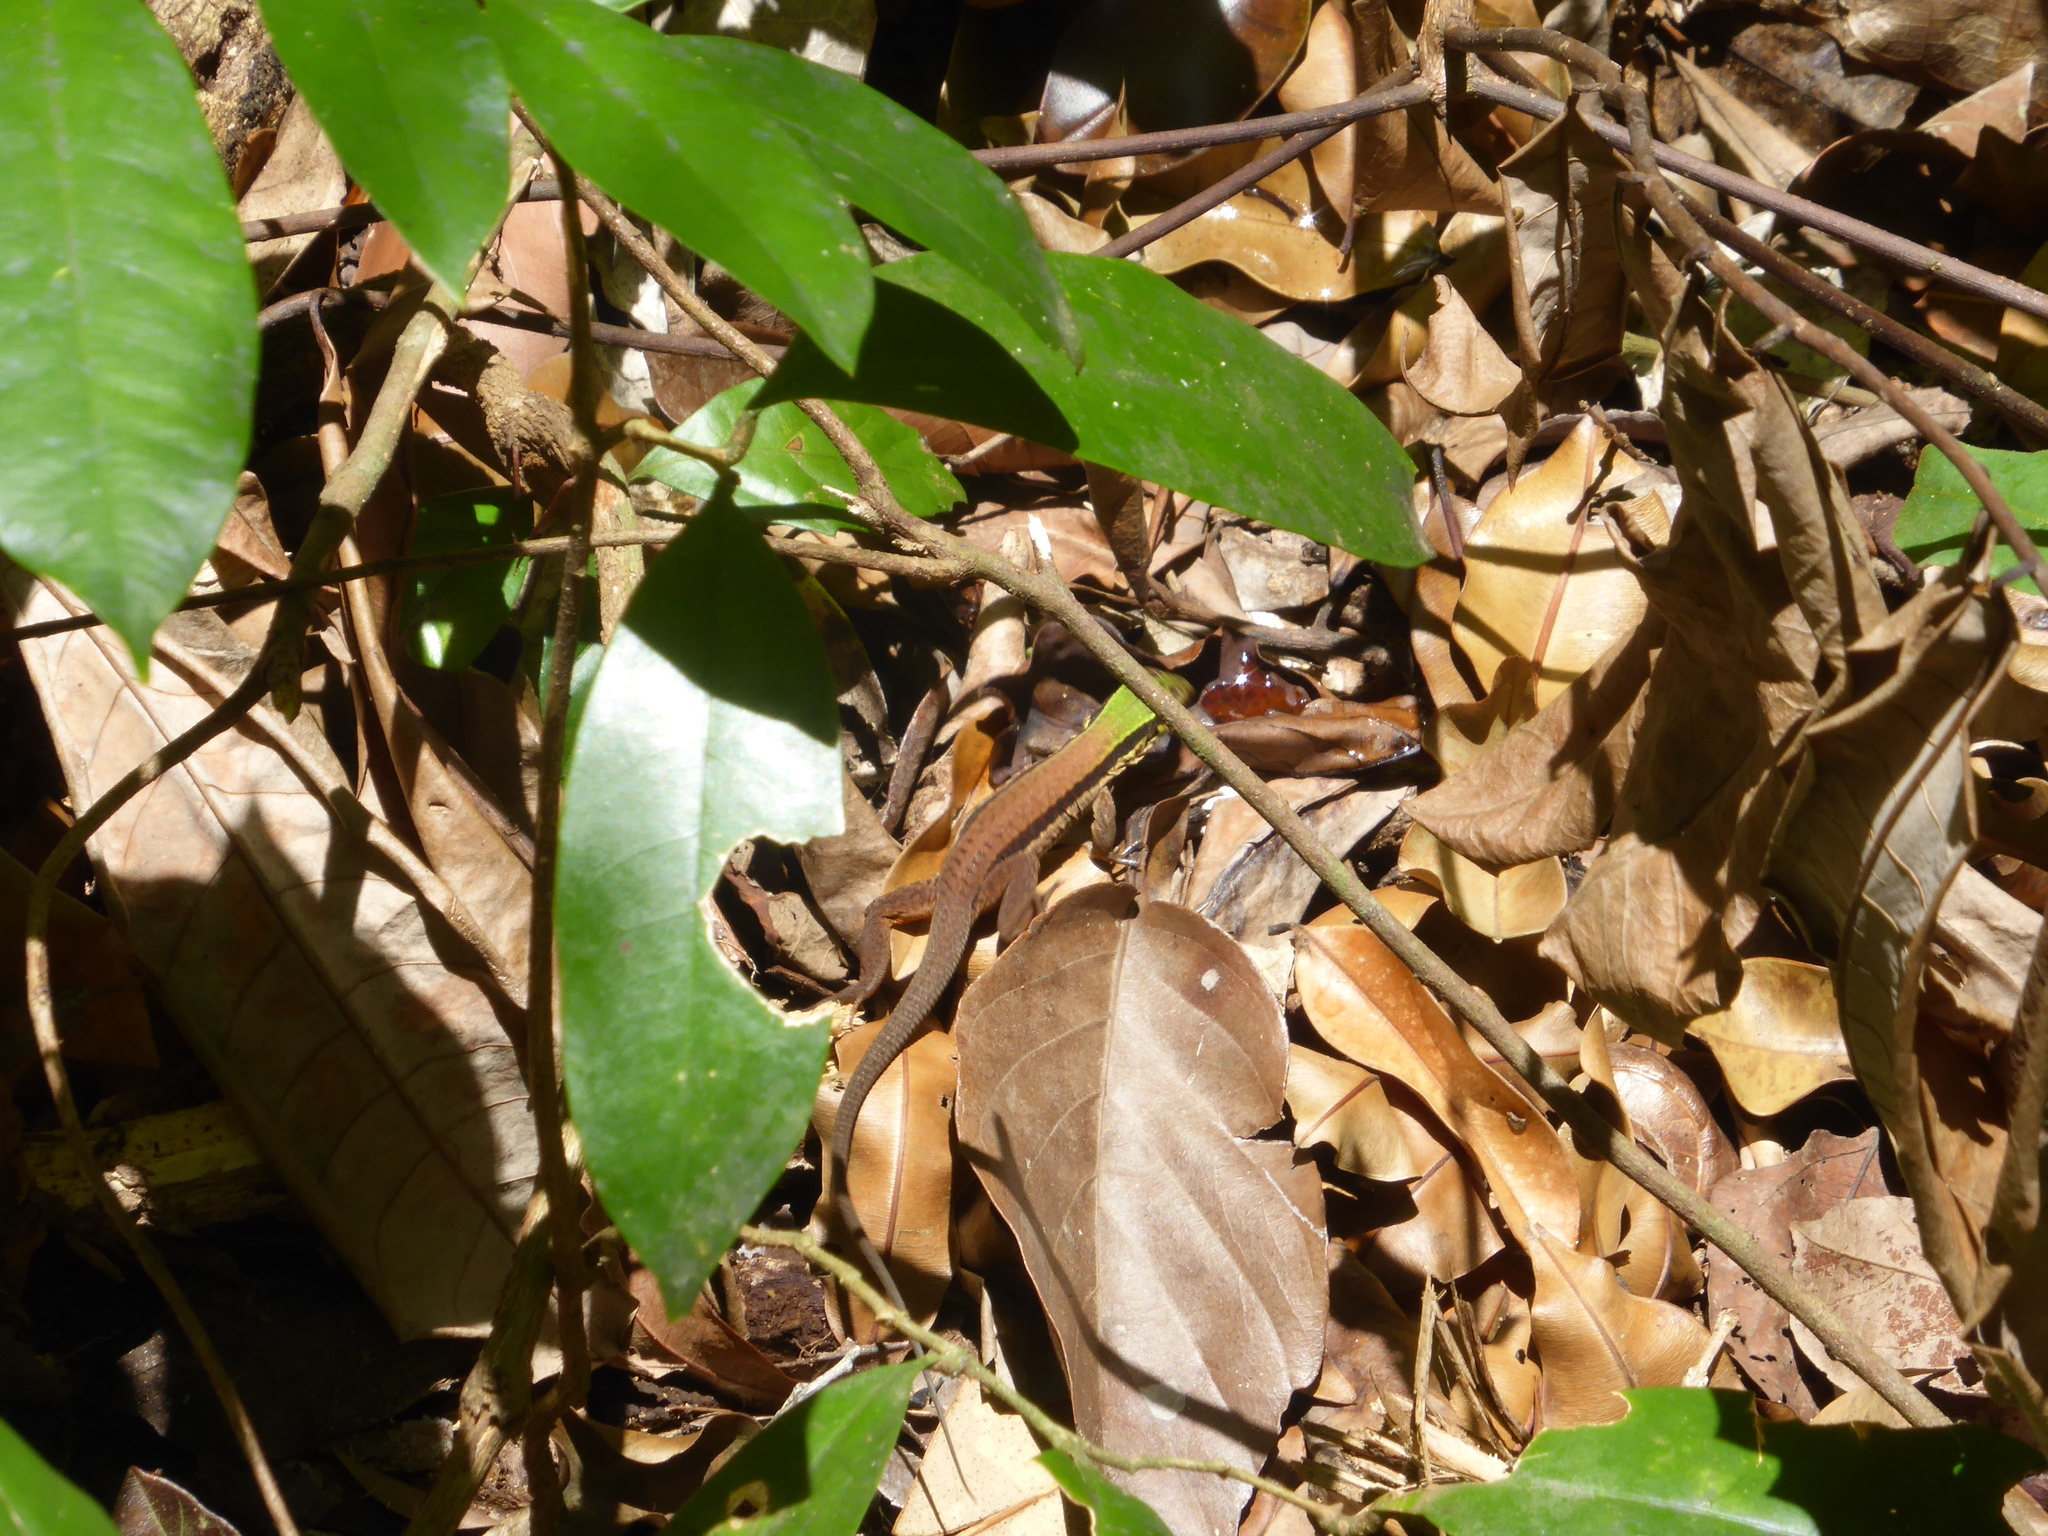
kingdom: Animalia
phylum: Chordata
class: Squamata
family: Teiidae
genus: Ameiva
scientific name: Ameiva ameiva
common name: Giant ameiva
